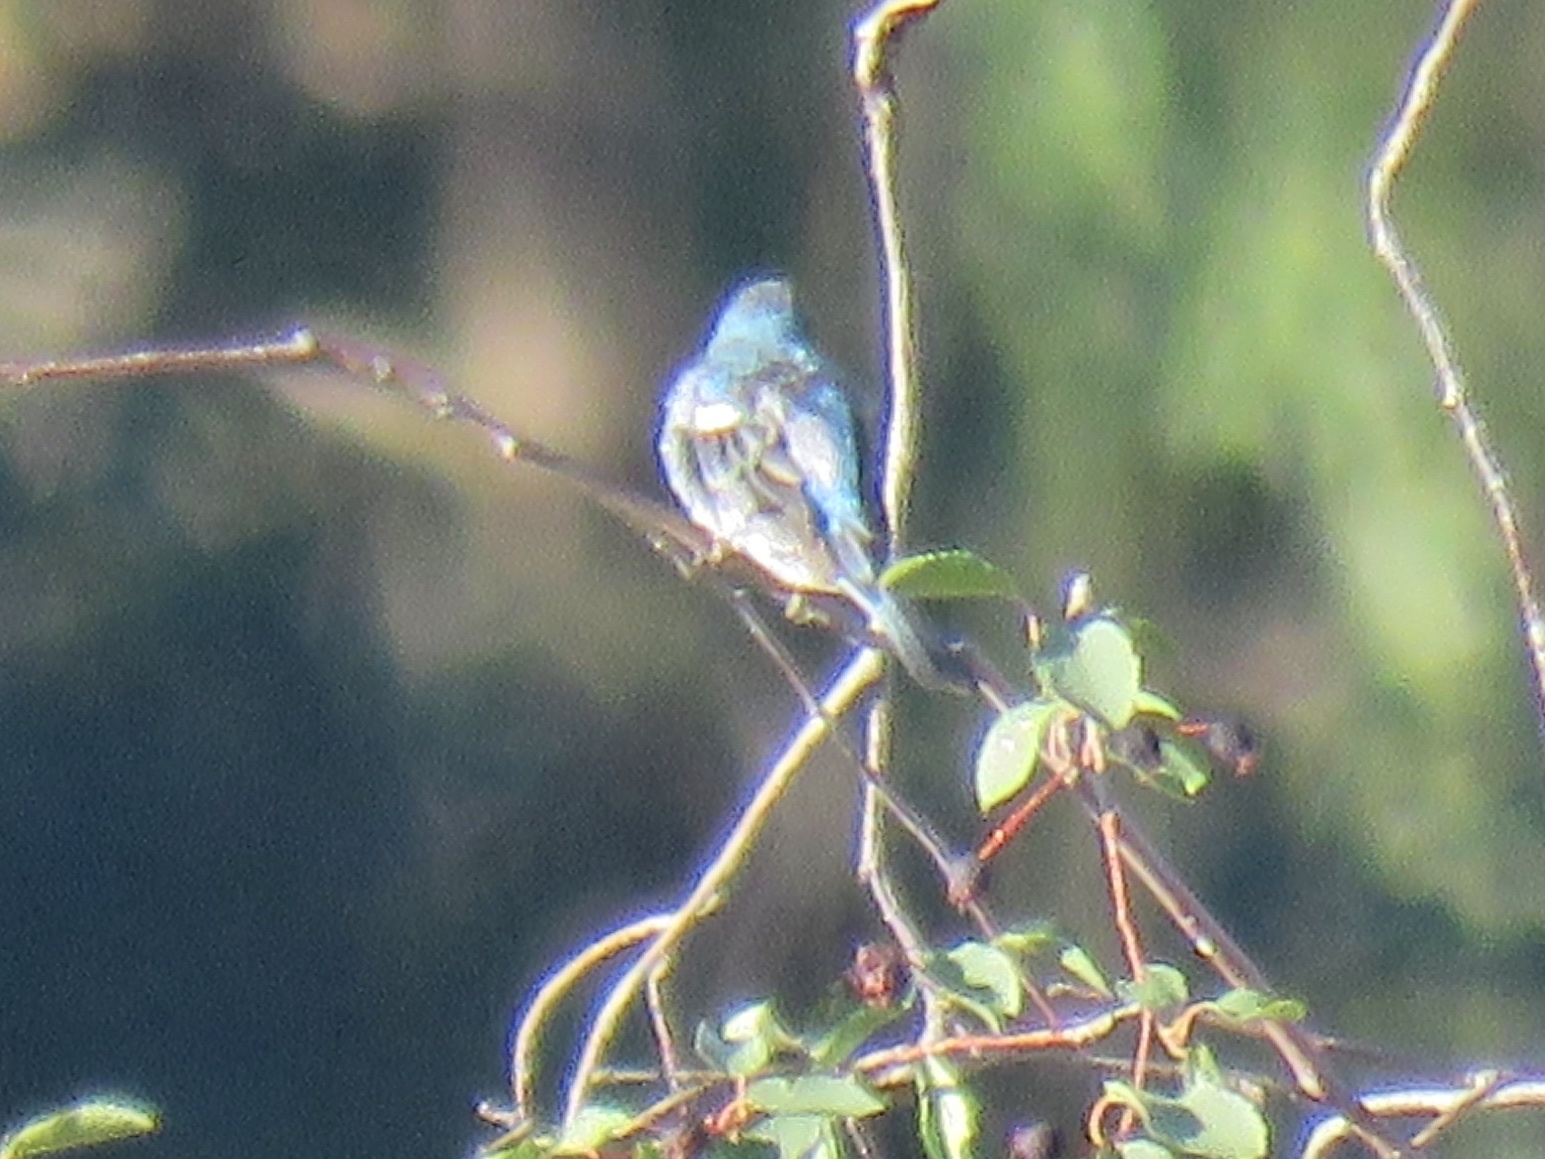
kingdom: Animalia
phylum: Chordata
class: Aves
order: Passeriformes
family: Cardinalidae
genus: Passerina
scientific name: Passerina amoena
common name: Lazuli bunting
